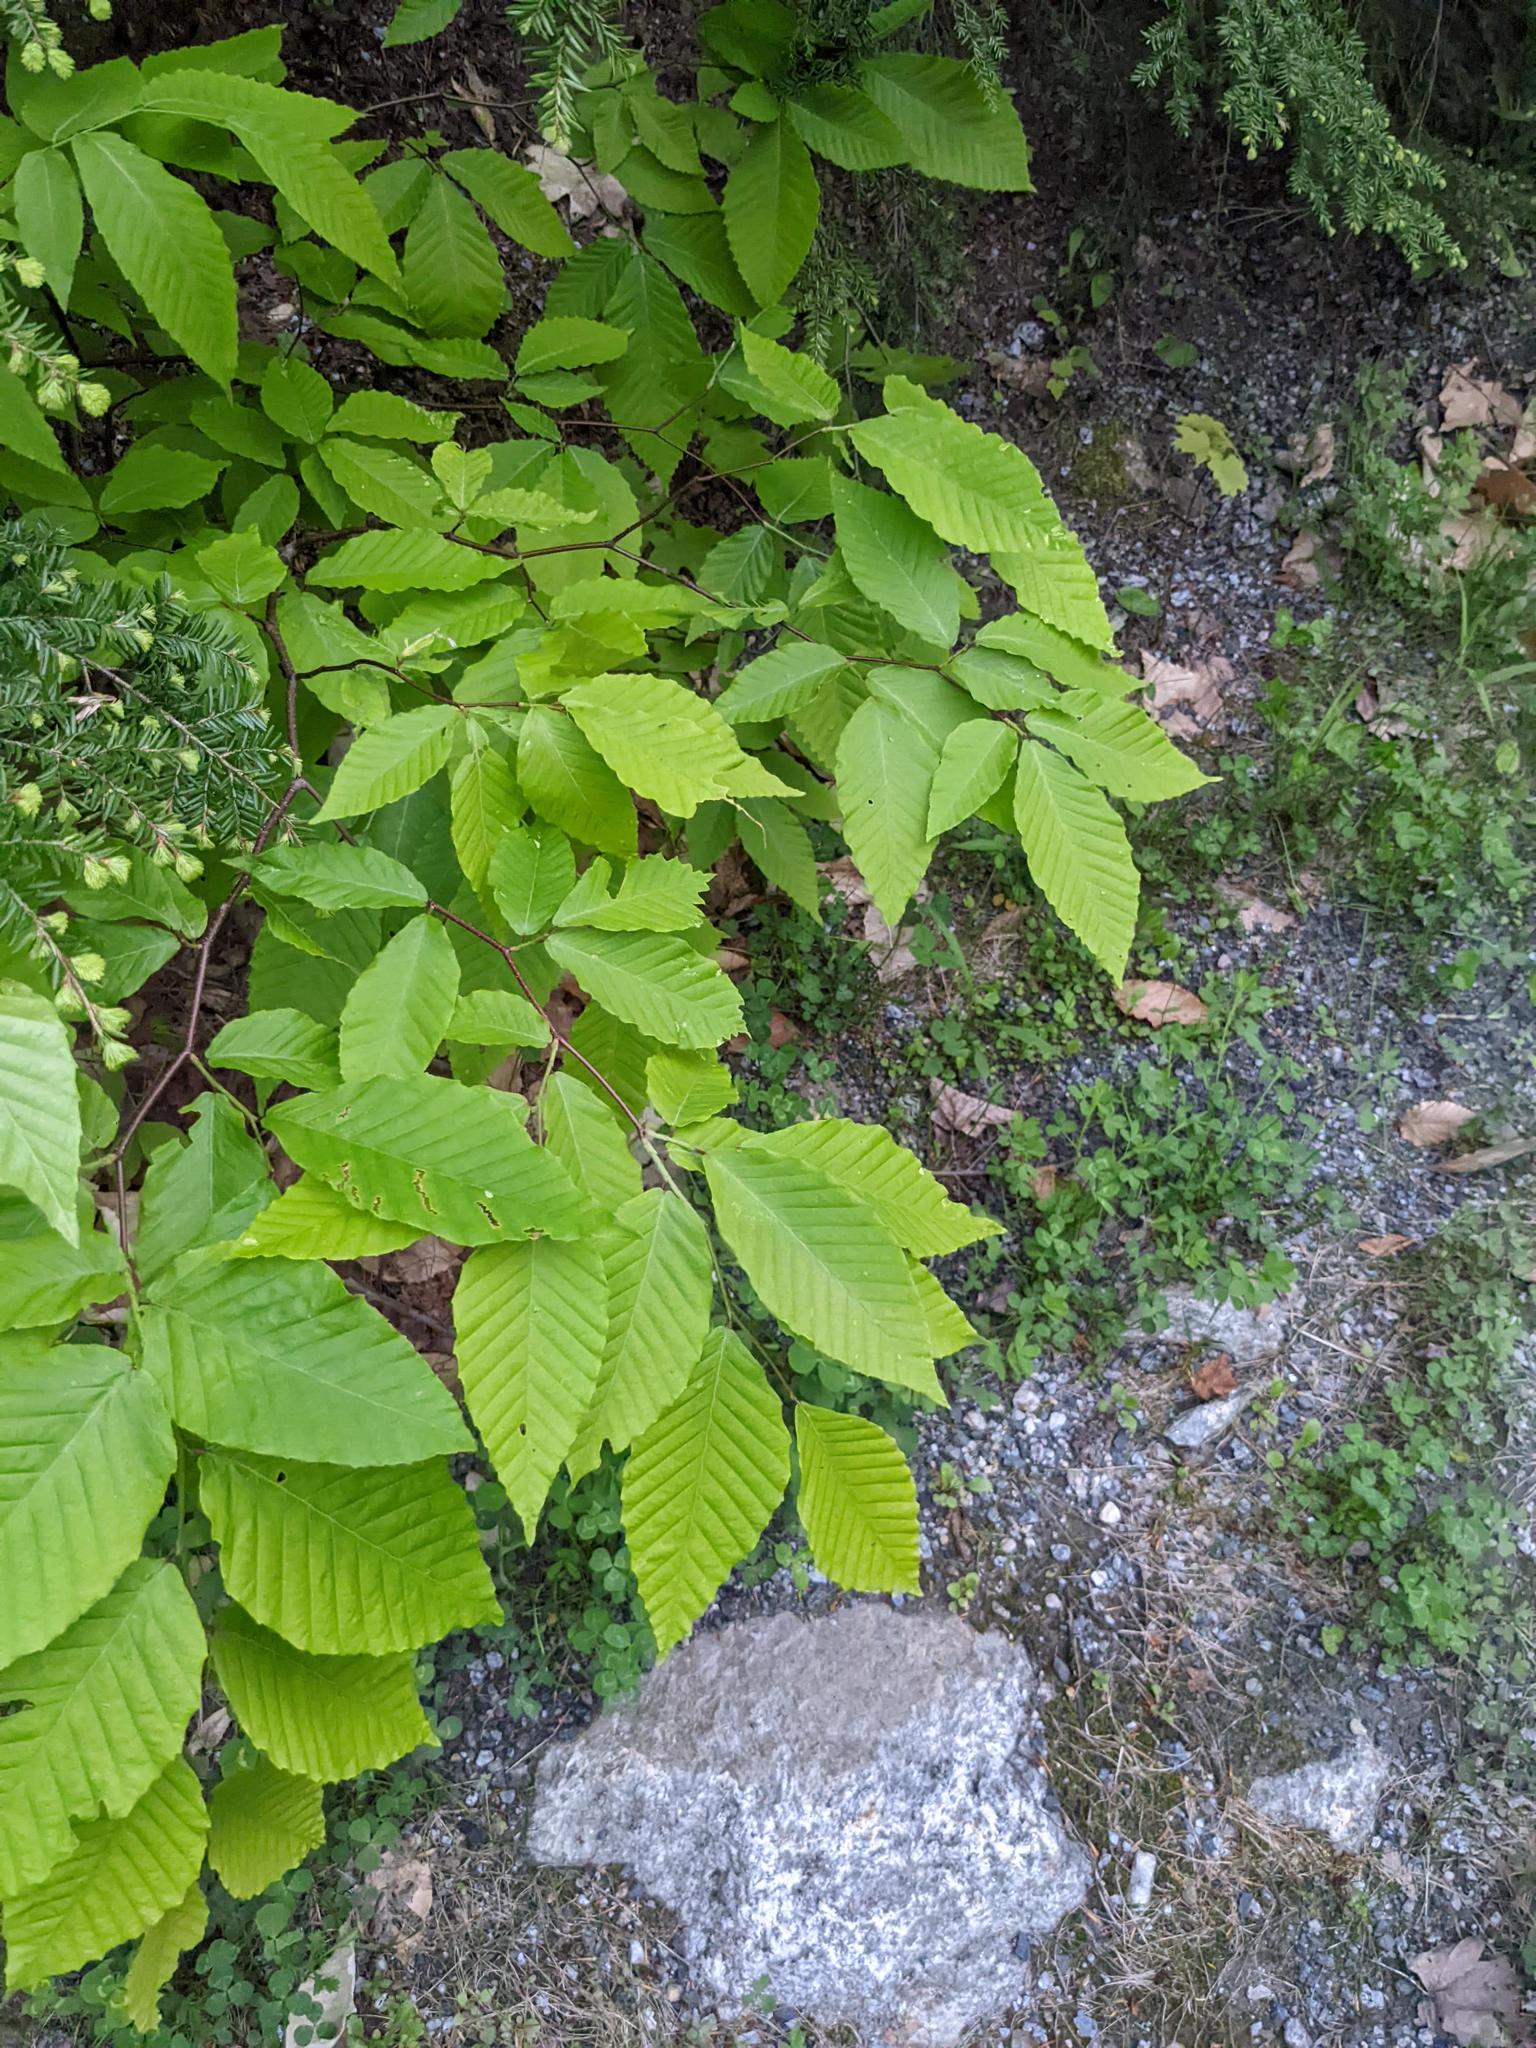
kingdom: Plantae
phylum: Tracheophyta
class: Magnoliopsida
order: Fagales
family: Fagaceae
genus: Fagus
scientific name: Fagus grandifolia
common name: American beech
